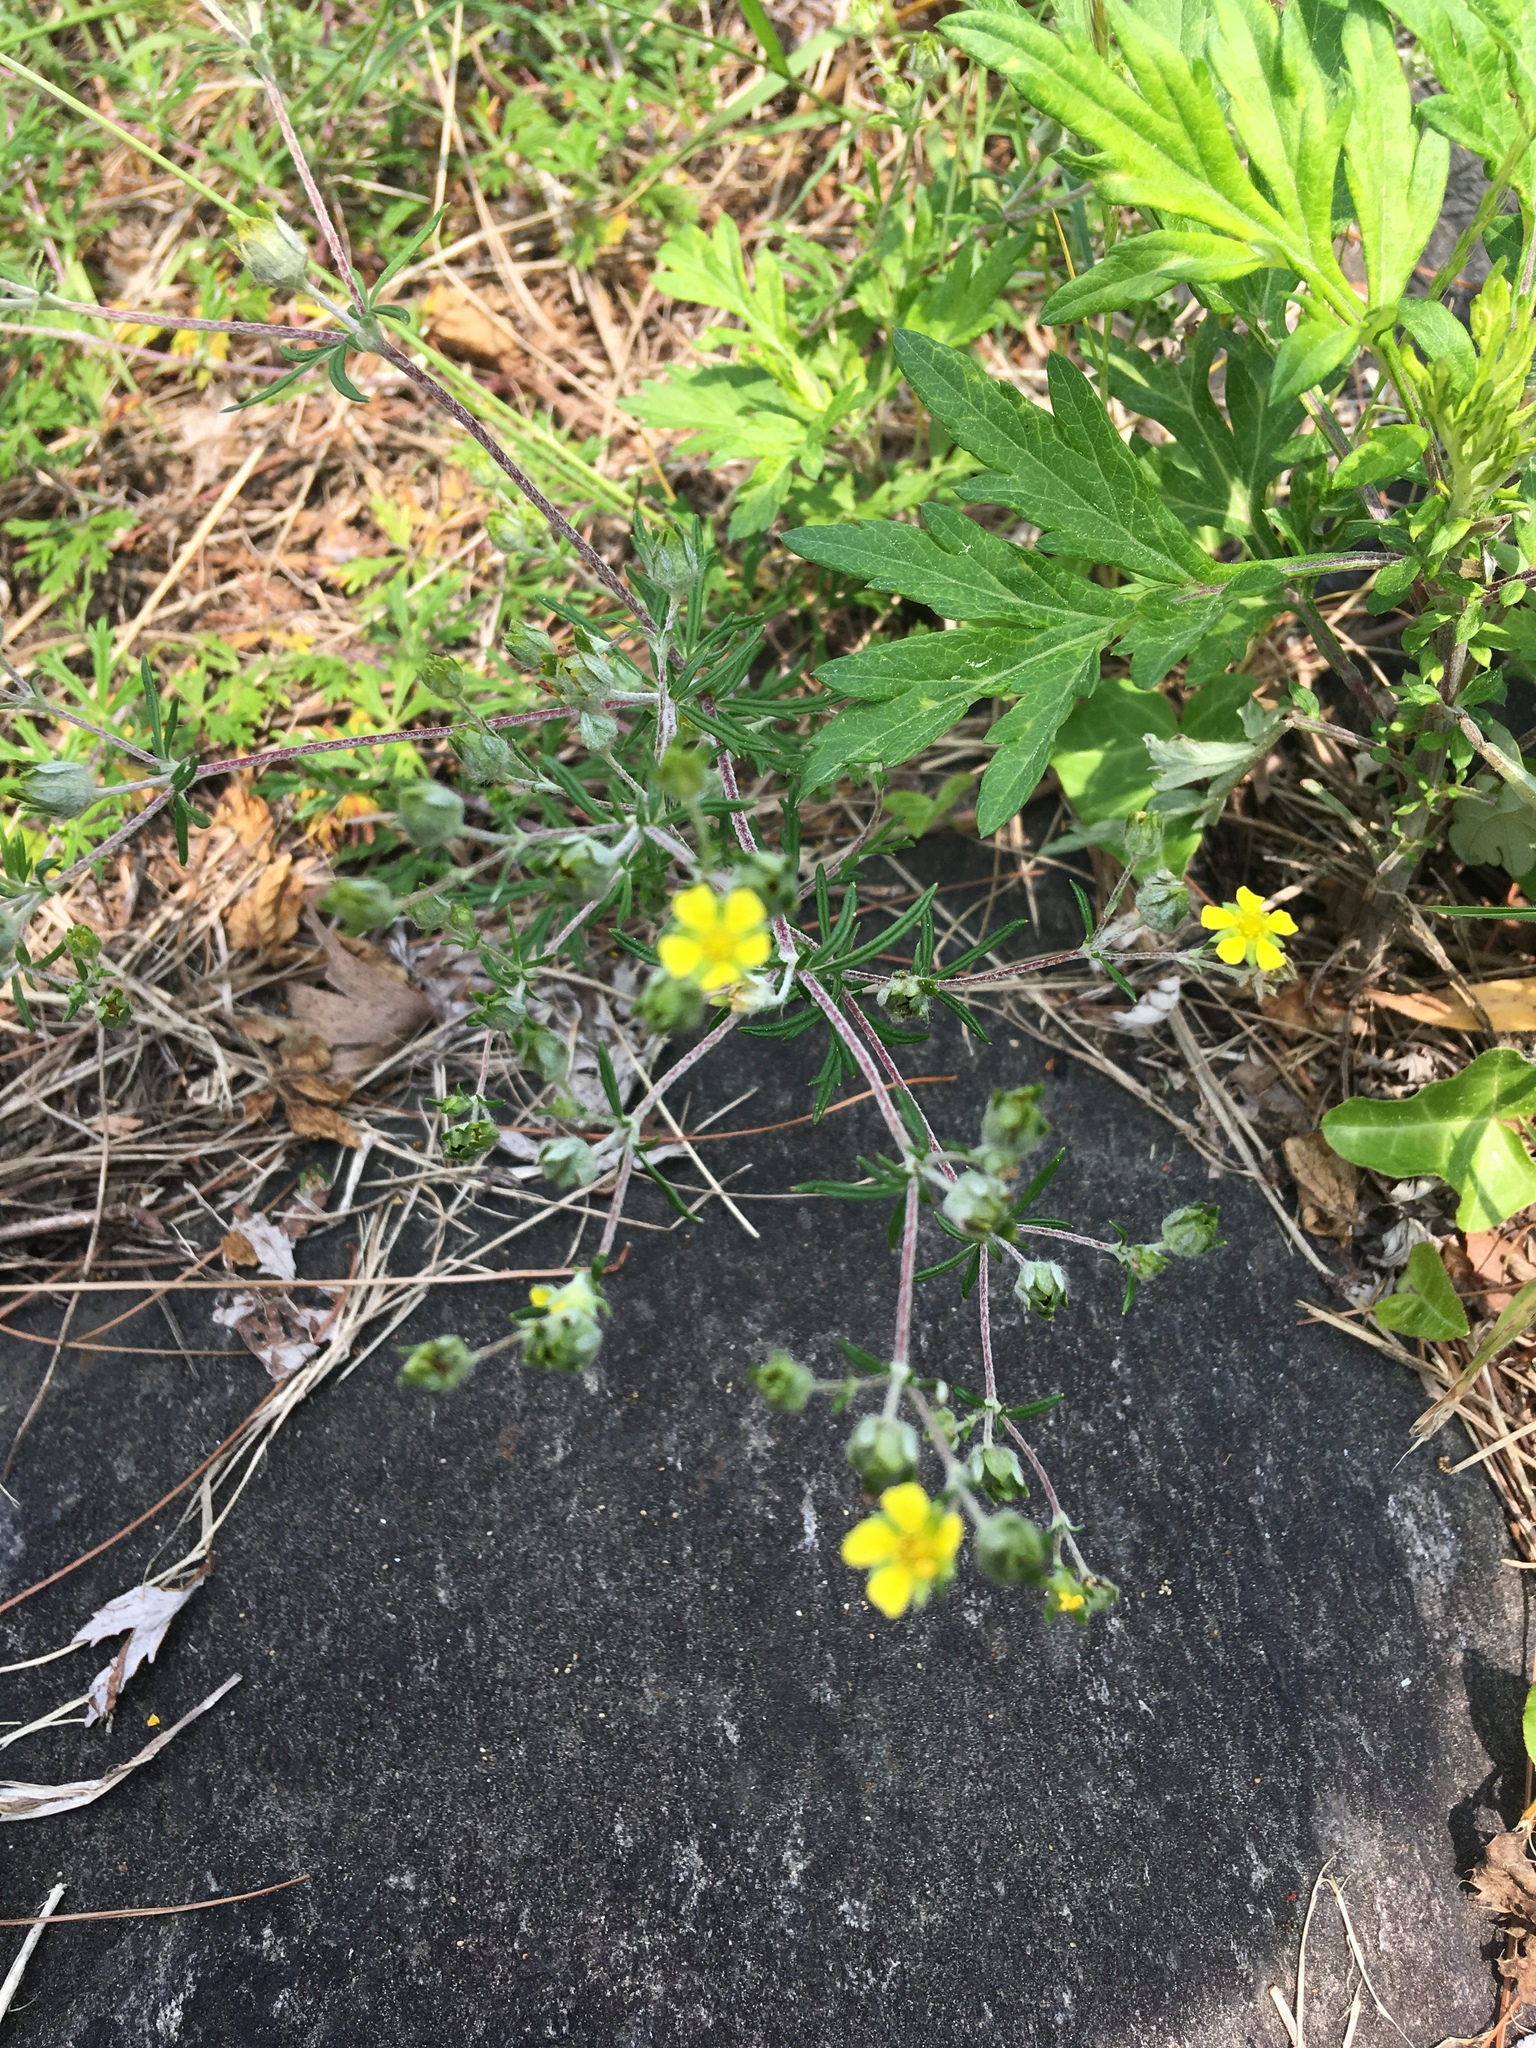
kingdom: Plantae
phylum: Tracheophyta
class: Magnoliopsida
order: Rosales
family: Rosaceae
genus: Potentilla
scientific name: Potentilla argentea
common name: Hoary cinquefoil
